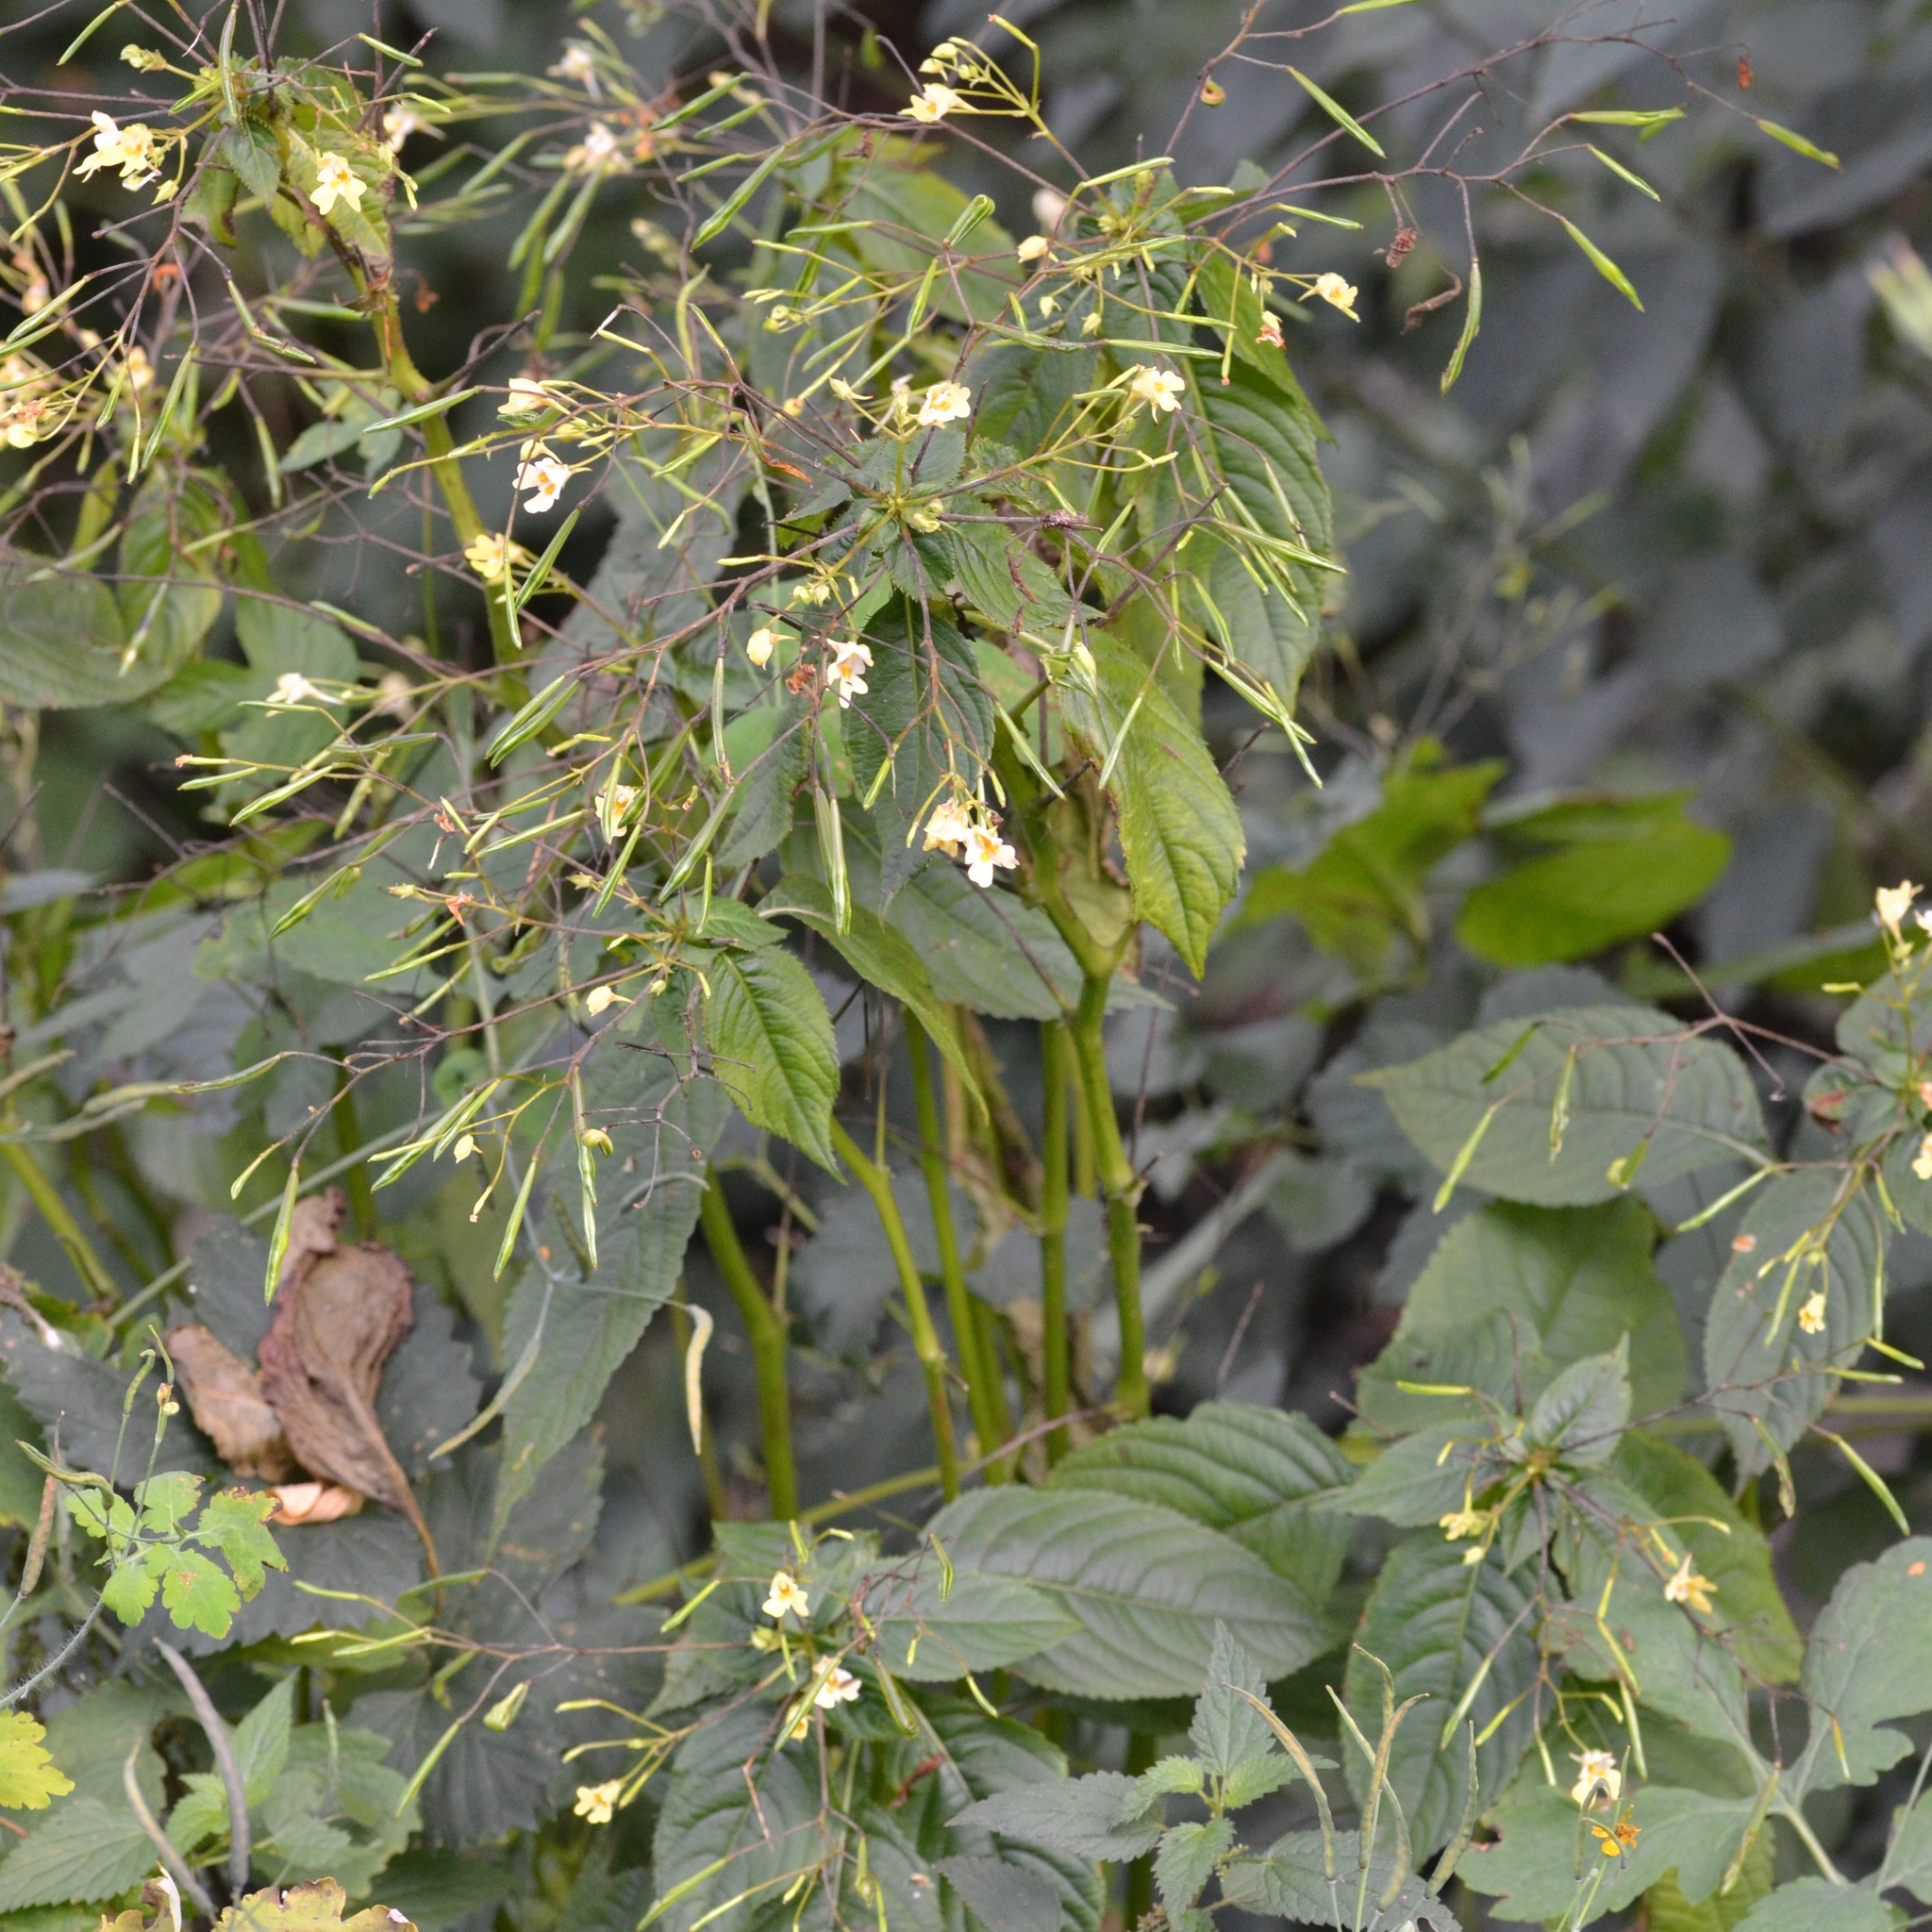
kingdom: Plantae
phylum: Tracheophyta
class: Magnoliopsida
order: Ericales
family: Balsaminaceae
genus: Impatiens
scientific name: Impatiens parviflora
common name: Small balsam
